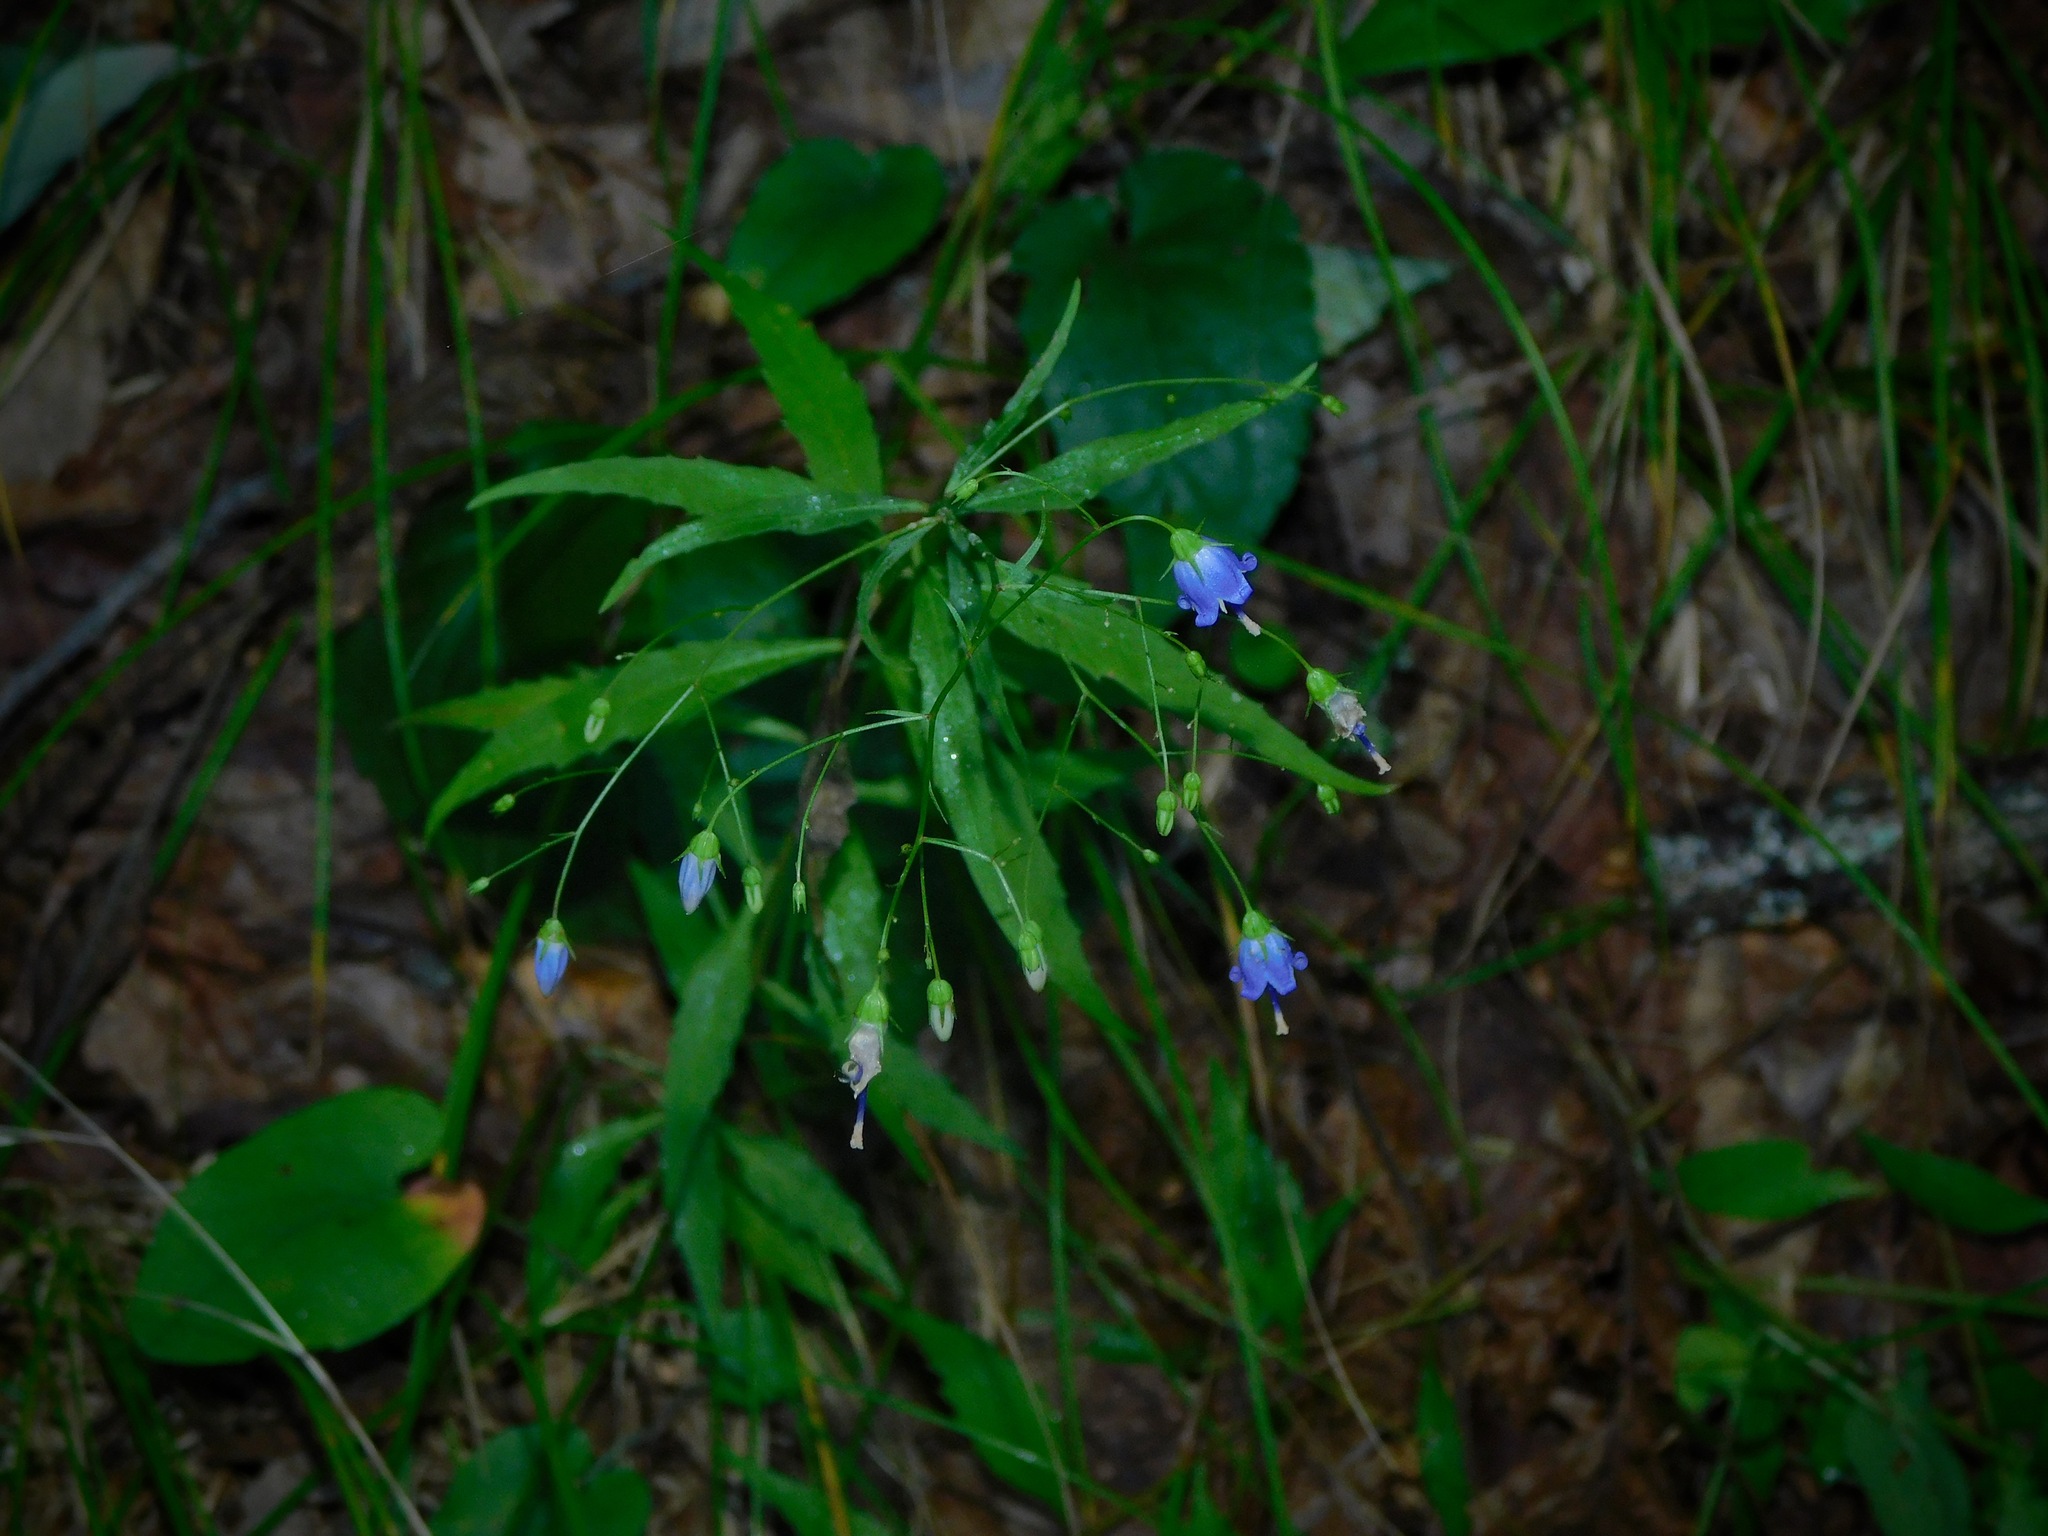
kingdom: Plantae
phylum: Tracheophyta
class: Magnoliopsida
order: Asterales
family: Campanulaceae
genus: Campanula
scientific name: Campanula divaricata
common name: Appalachian bellflower
